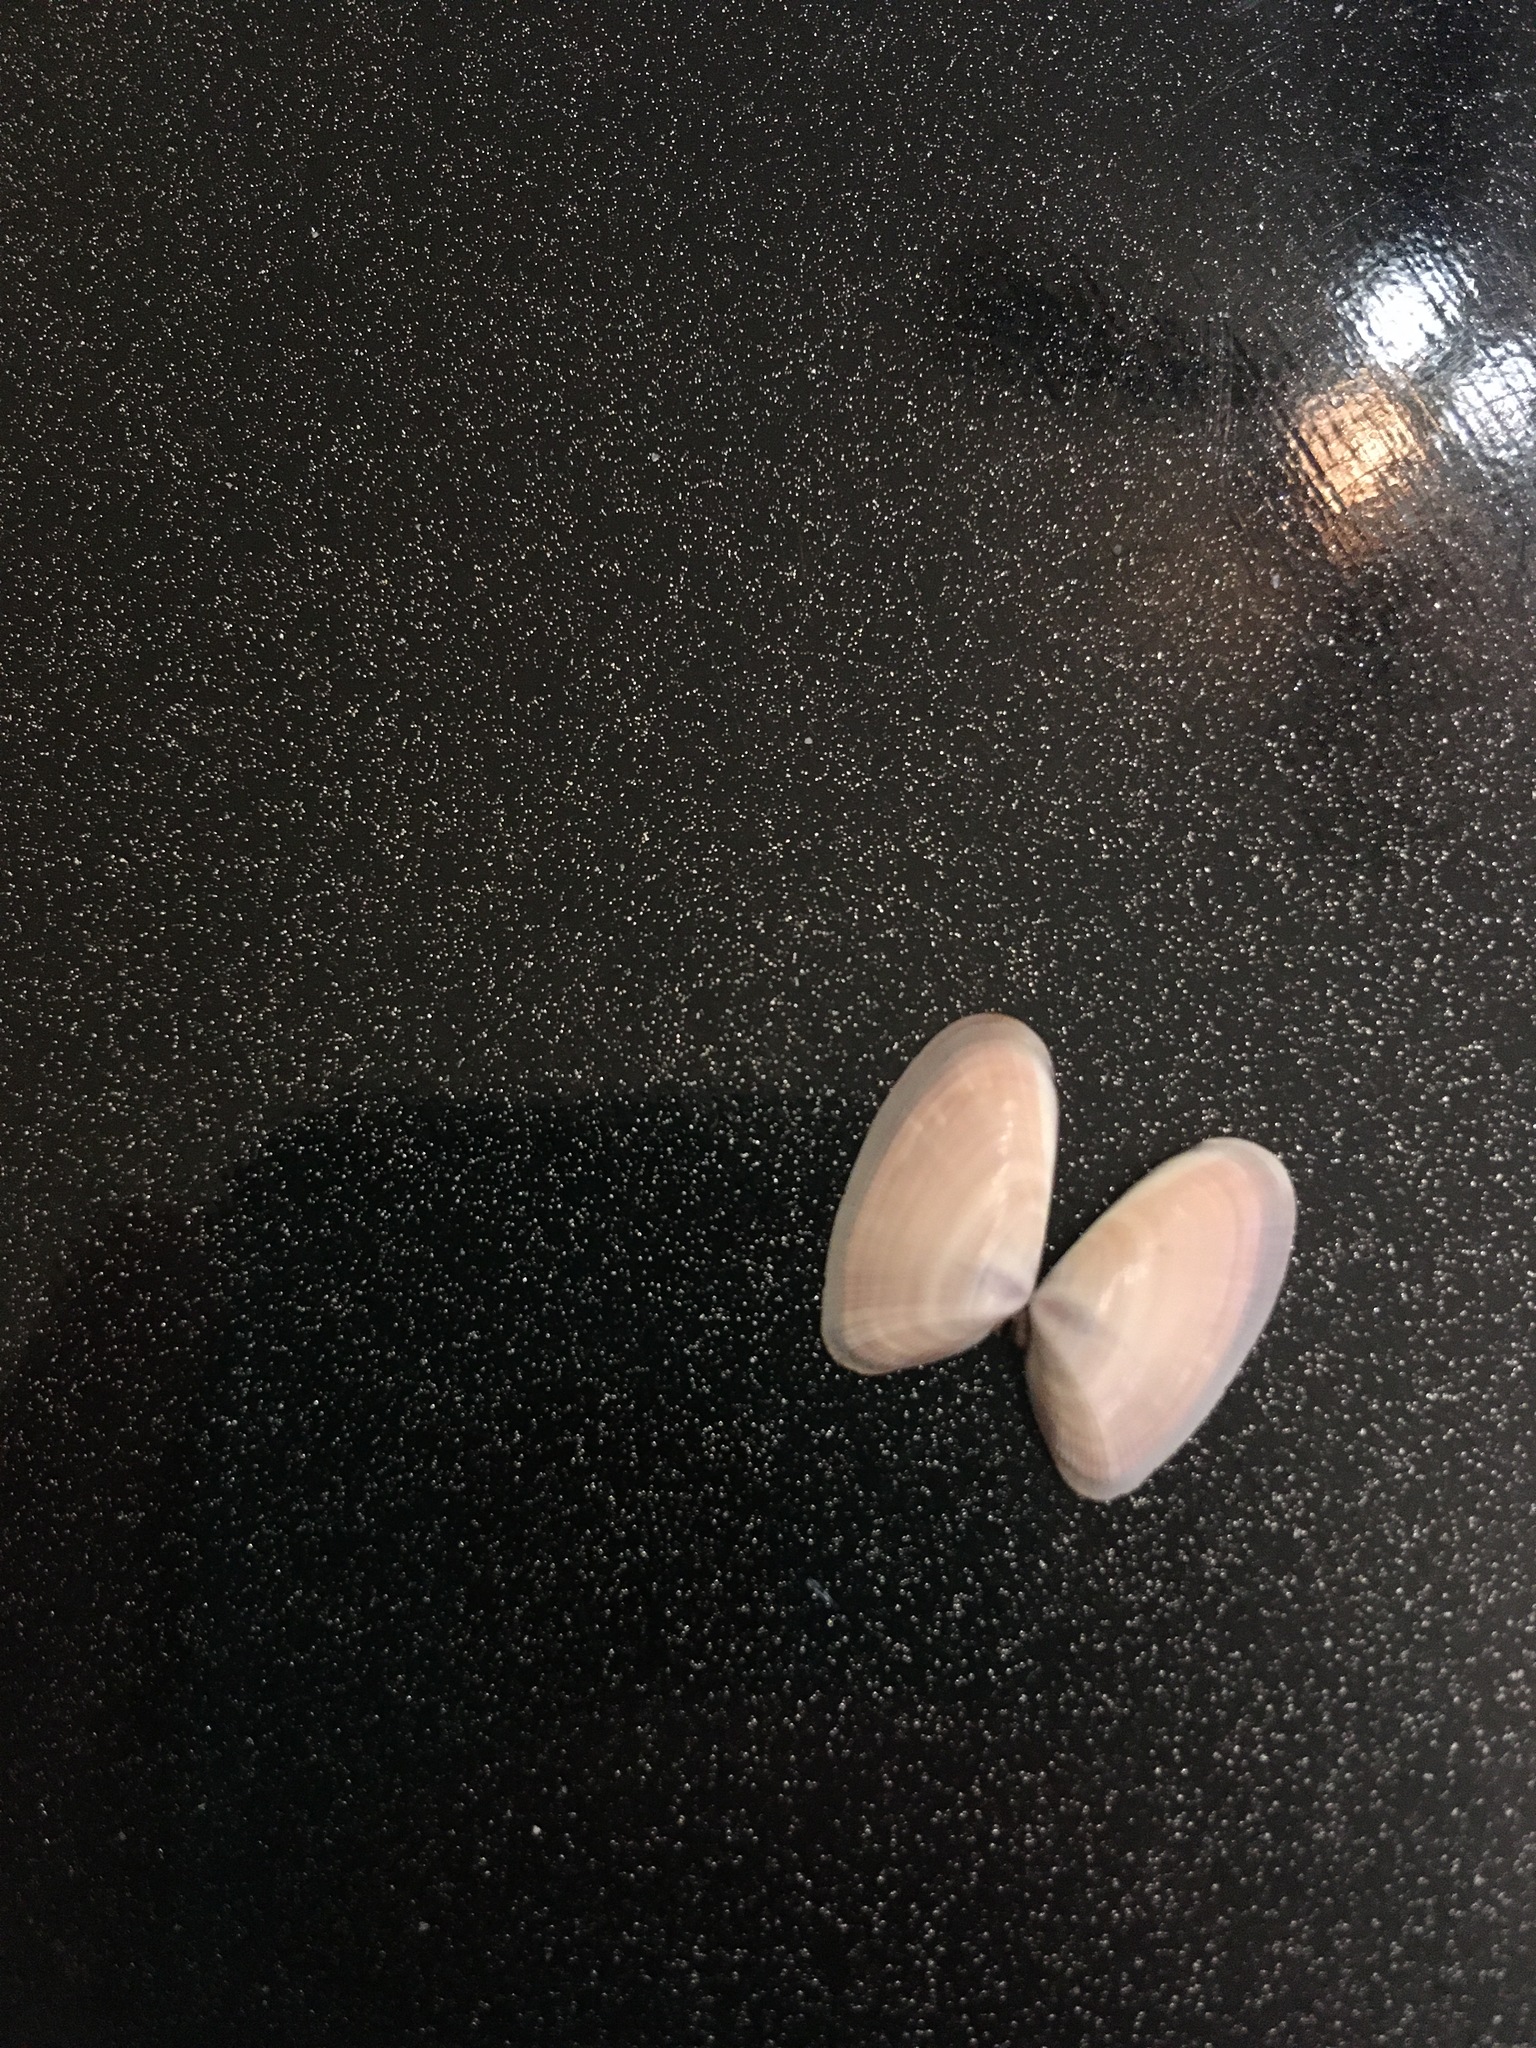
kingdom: Animalia
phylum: Mollusca
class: Bivalvia
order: Cardiida
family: Donacidae
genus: Donax
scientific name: Donax variabilis
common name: Butterfly shell
